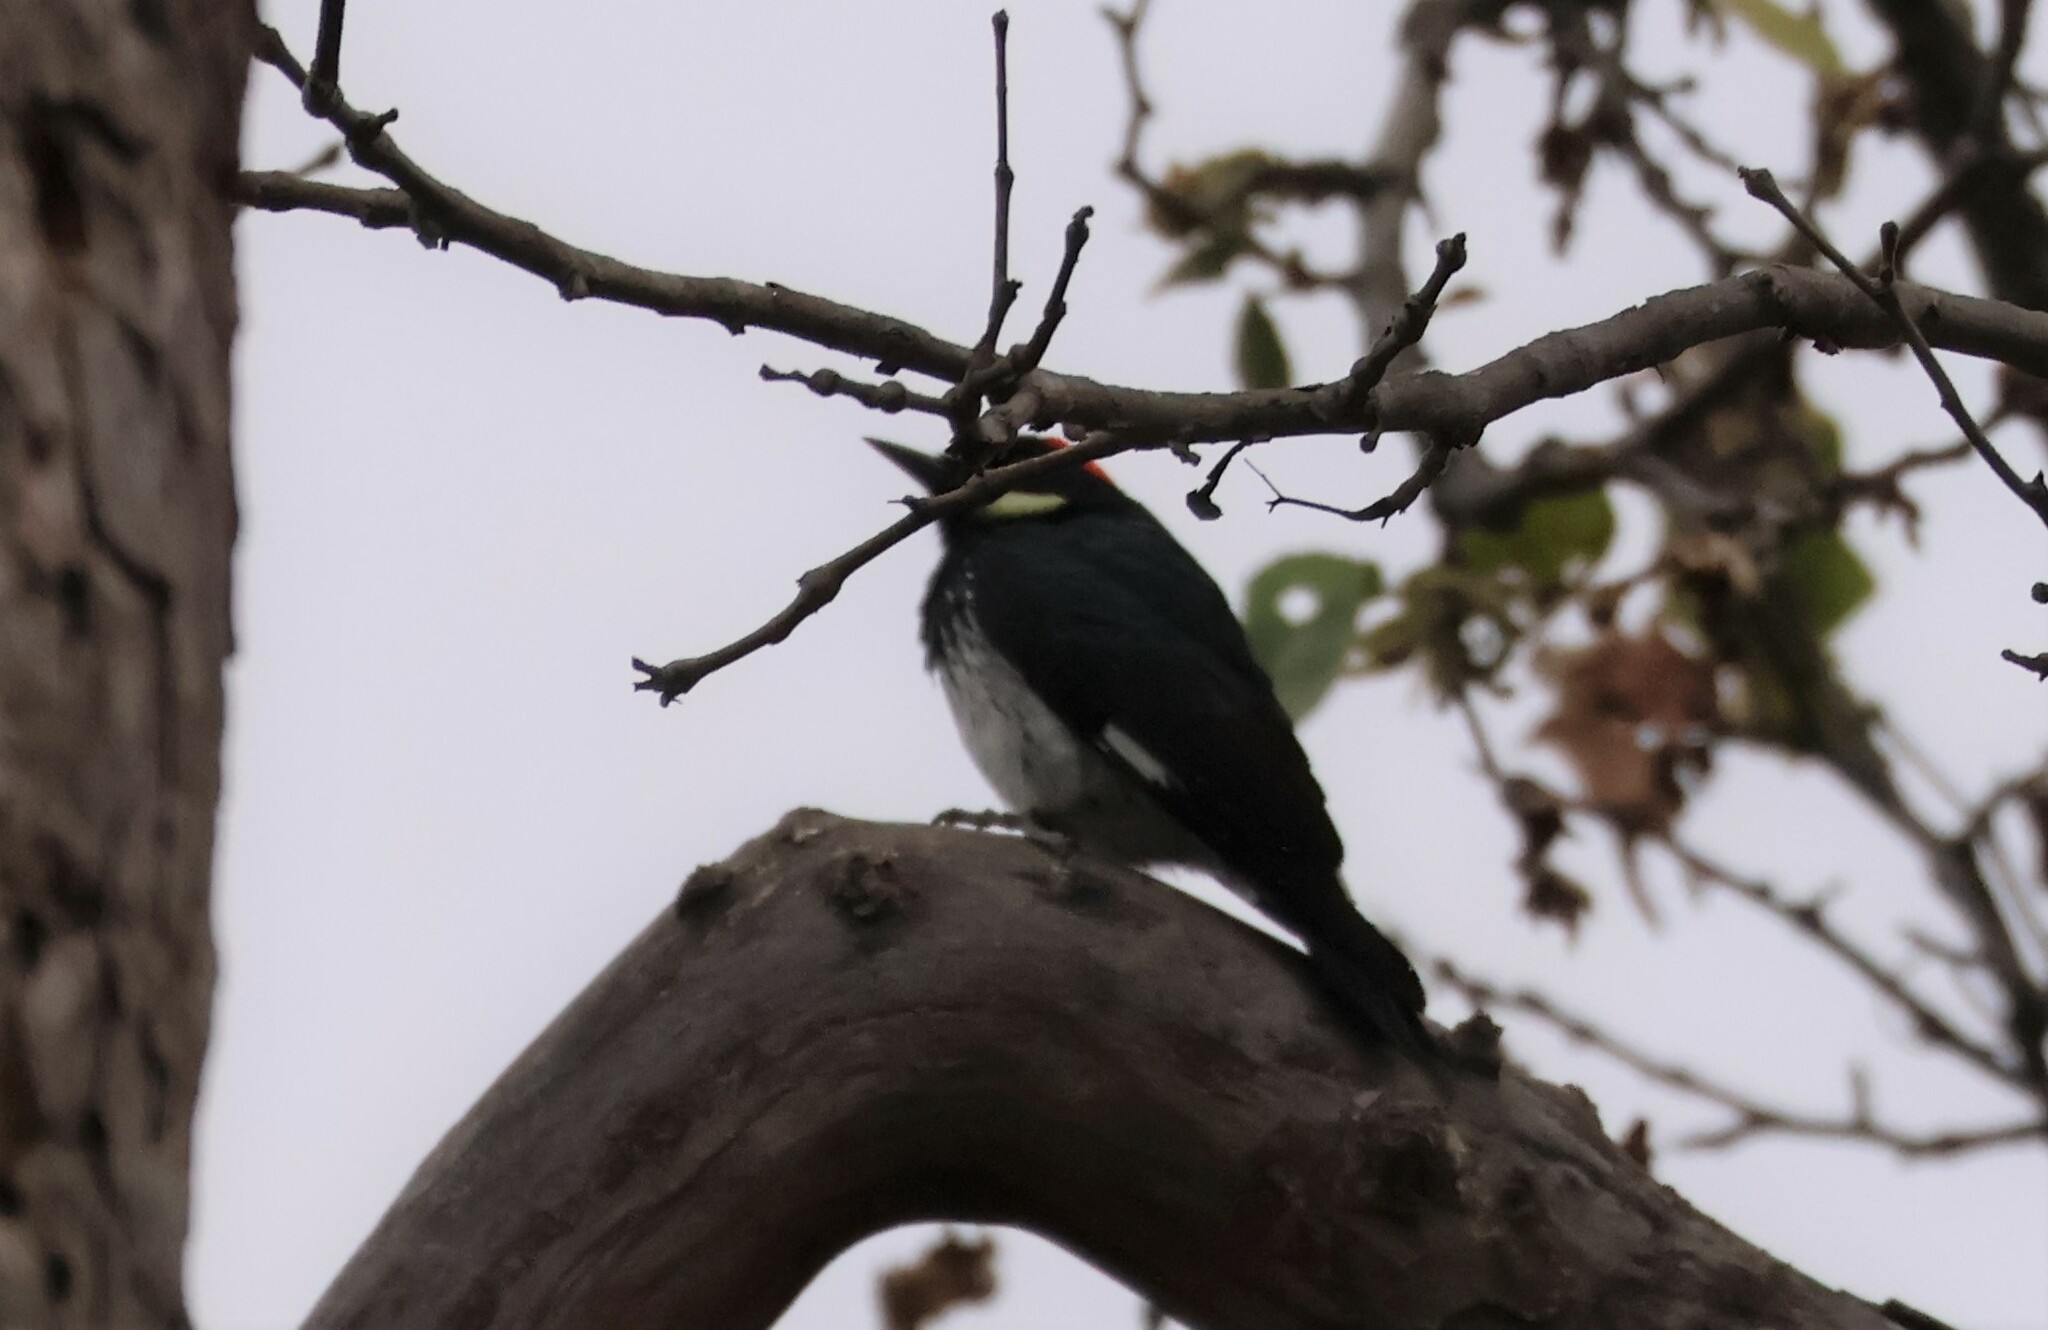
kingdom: Animalia
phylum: Chordata
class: Aves
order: Piciformes
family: Picidae
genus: Melanerpes
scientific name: Melanerpes formicivorus
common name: Acorn woodpecker
